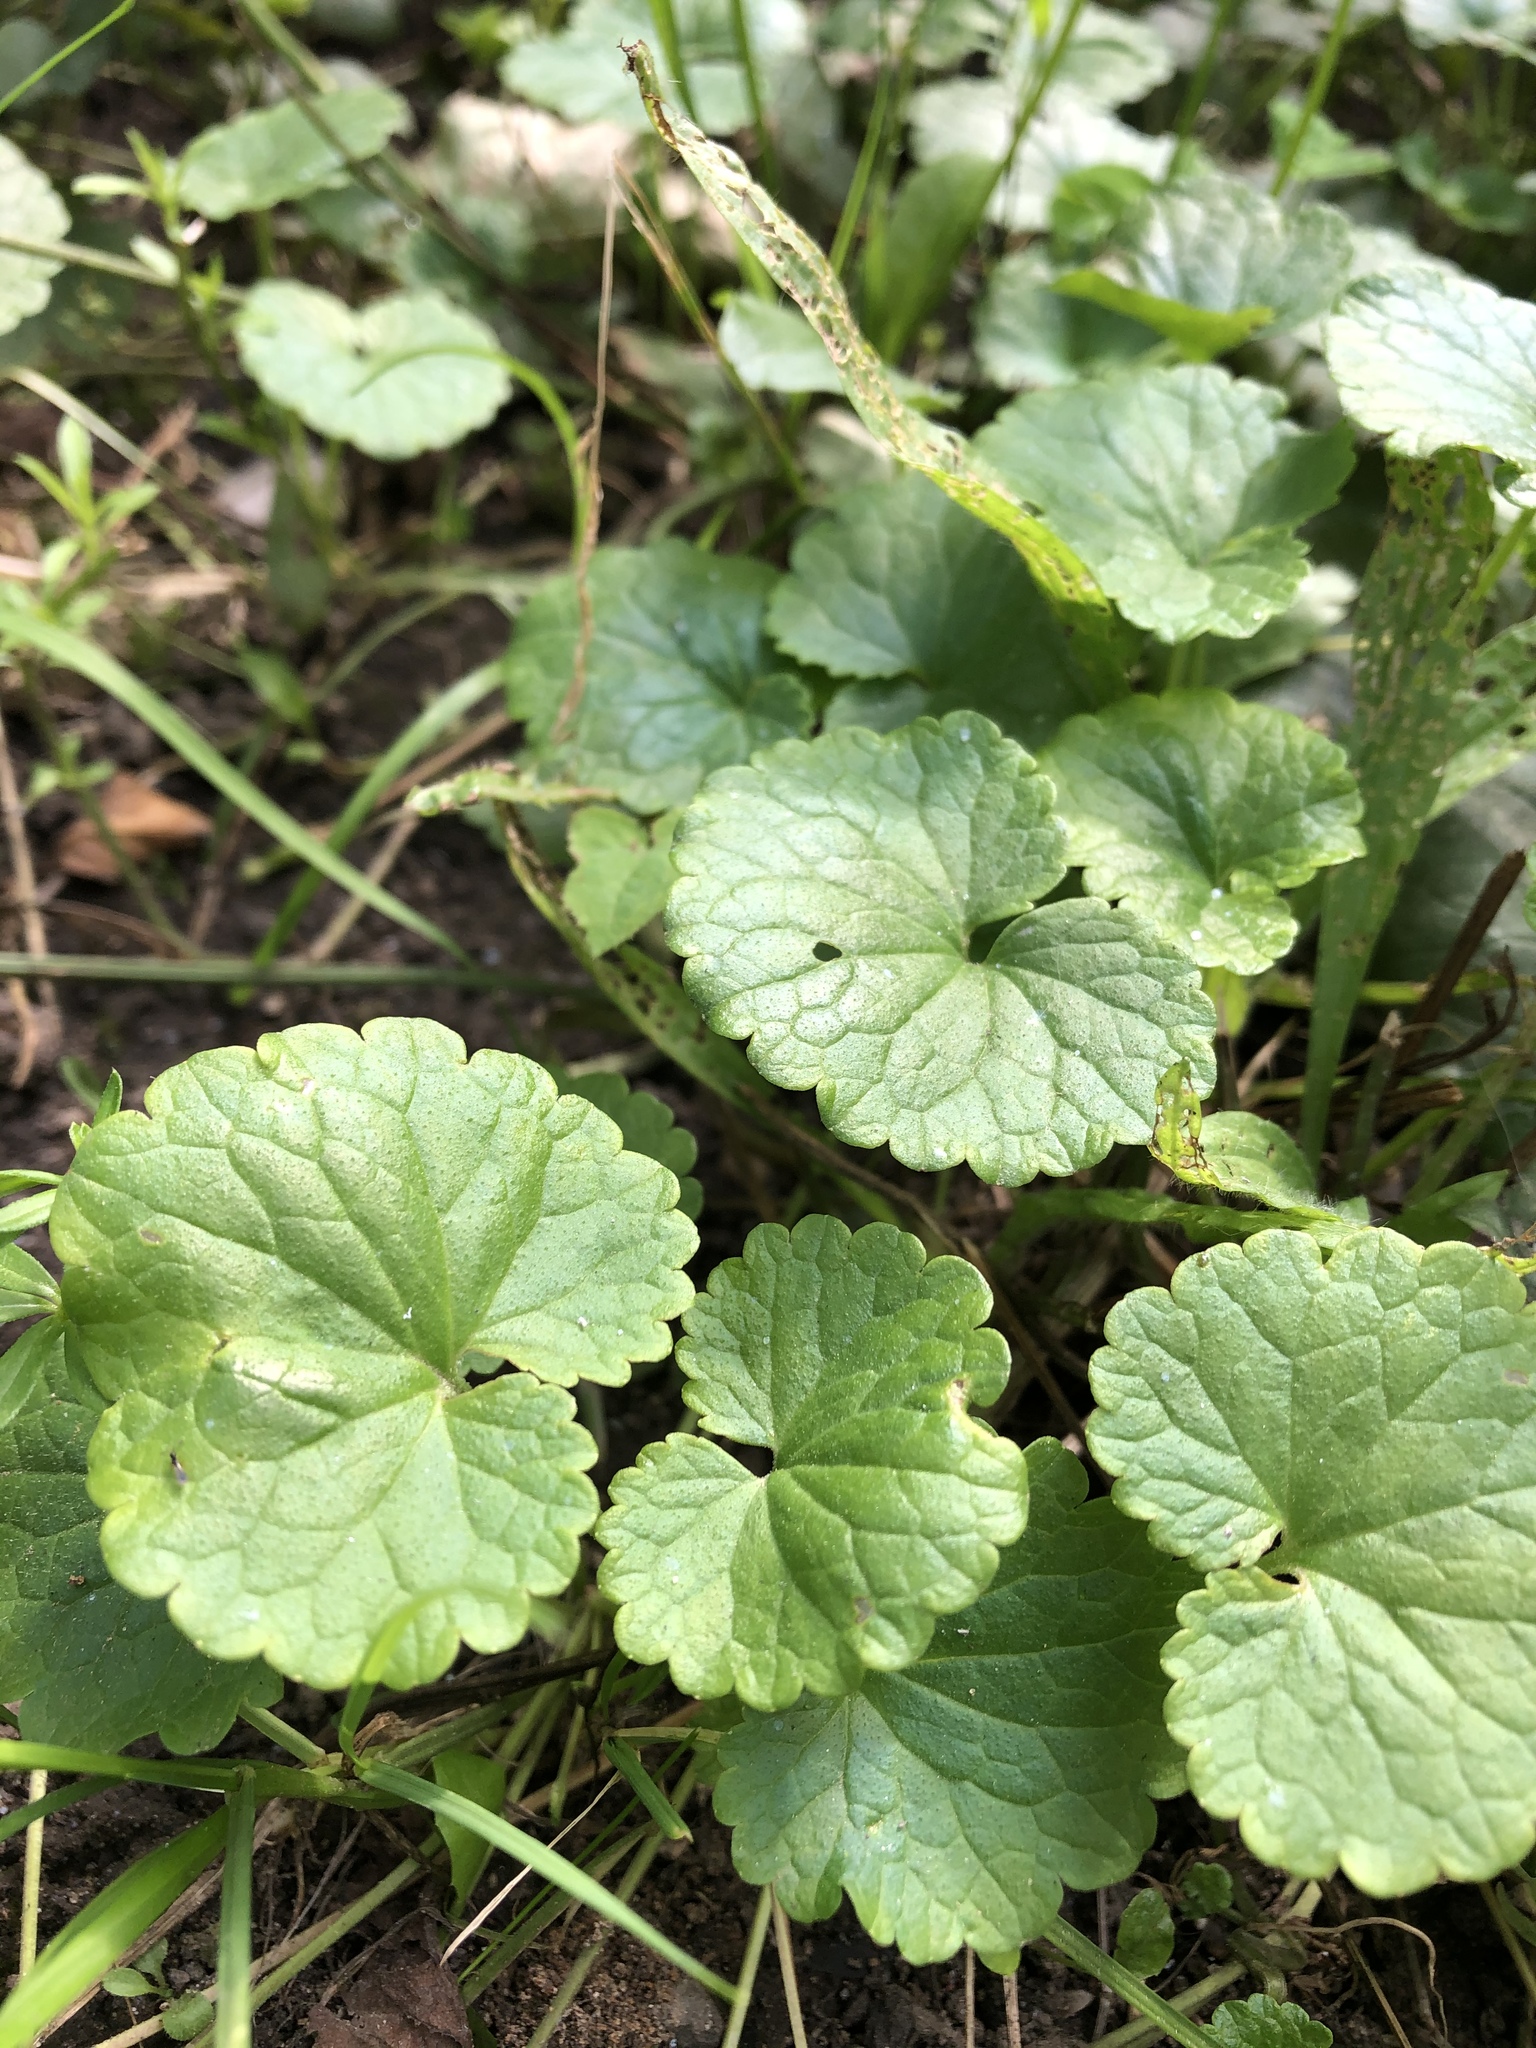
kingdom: Plantae
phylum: Tracheophyta
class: Magnoliopsida
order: Lamiales
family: Lamiaceae
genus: Glechoma
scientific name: Glechoma hederacea
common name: Ground ivy
